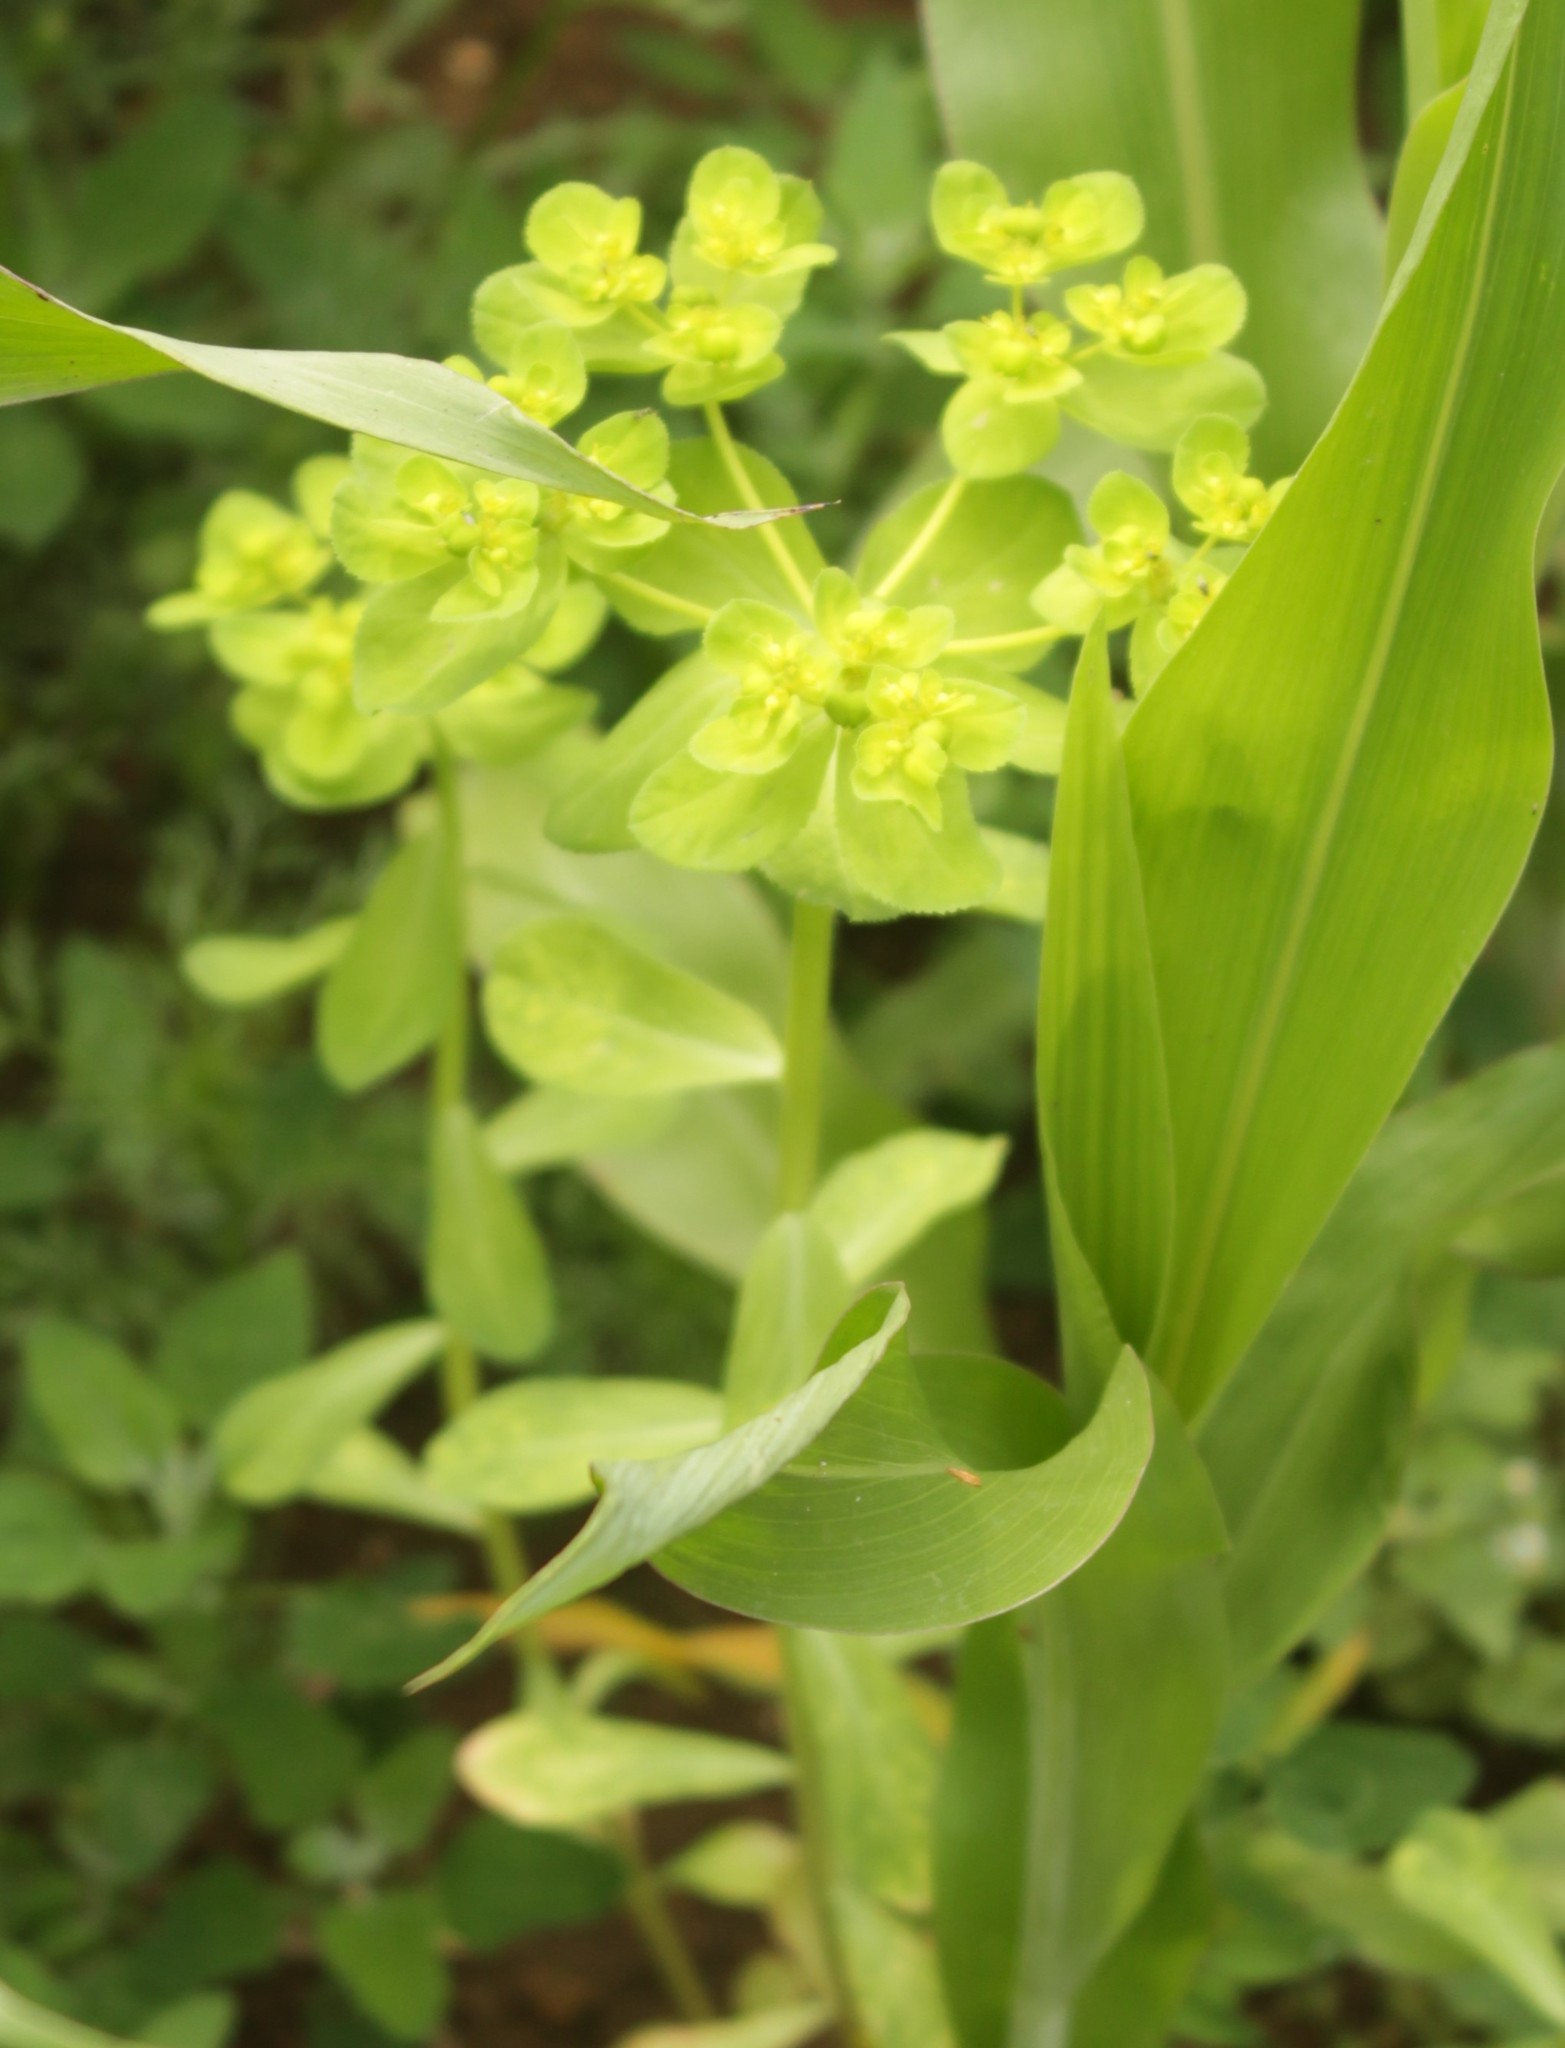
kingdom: Plantae
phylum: Tracheophyta
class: Magnoliopsida
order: Malpighiales
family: Euphorbiaceae
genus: Euphorbia
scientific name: Euphorbia helioscopia
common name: Sun spurge
